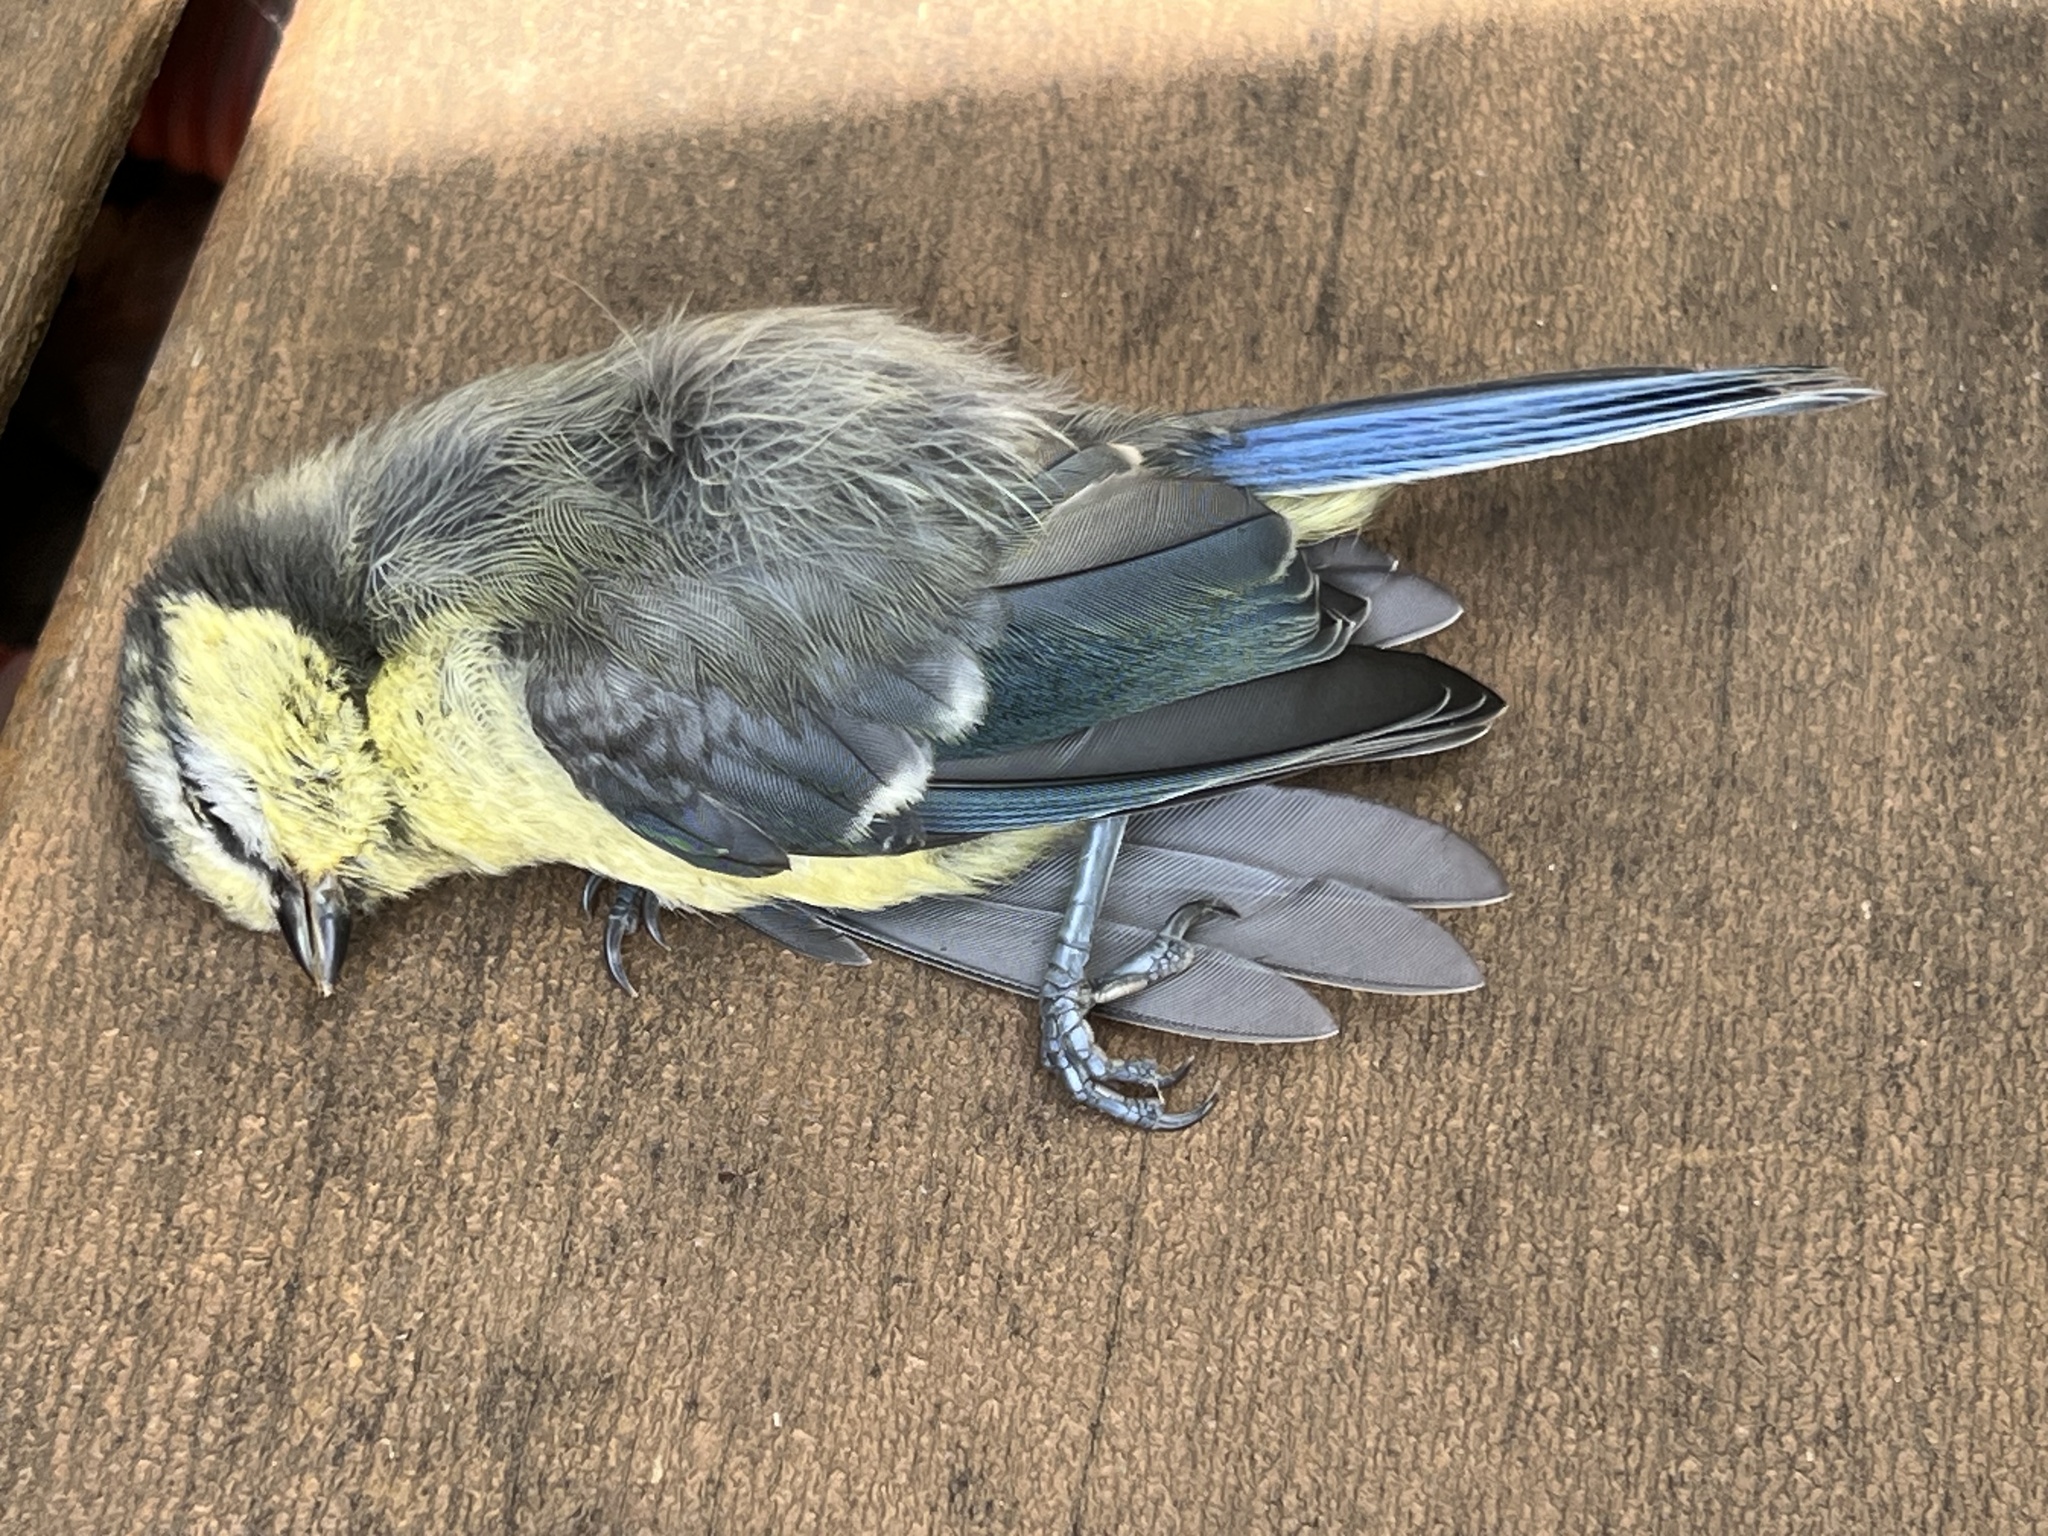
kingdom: Animalia
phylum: Chordata
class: Aves
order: Passeriformes
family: Paridae
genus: Cyanistes
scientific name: Cyanistes caeruleus
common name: Eurasian blue tit
